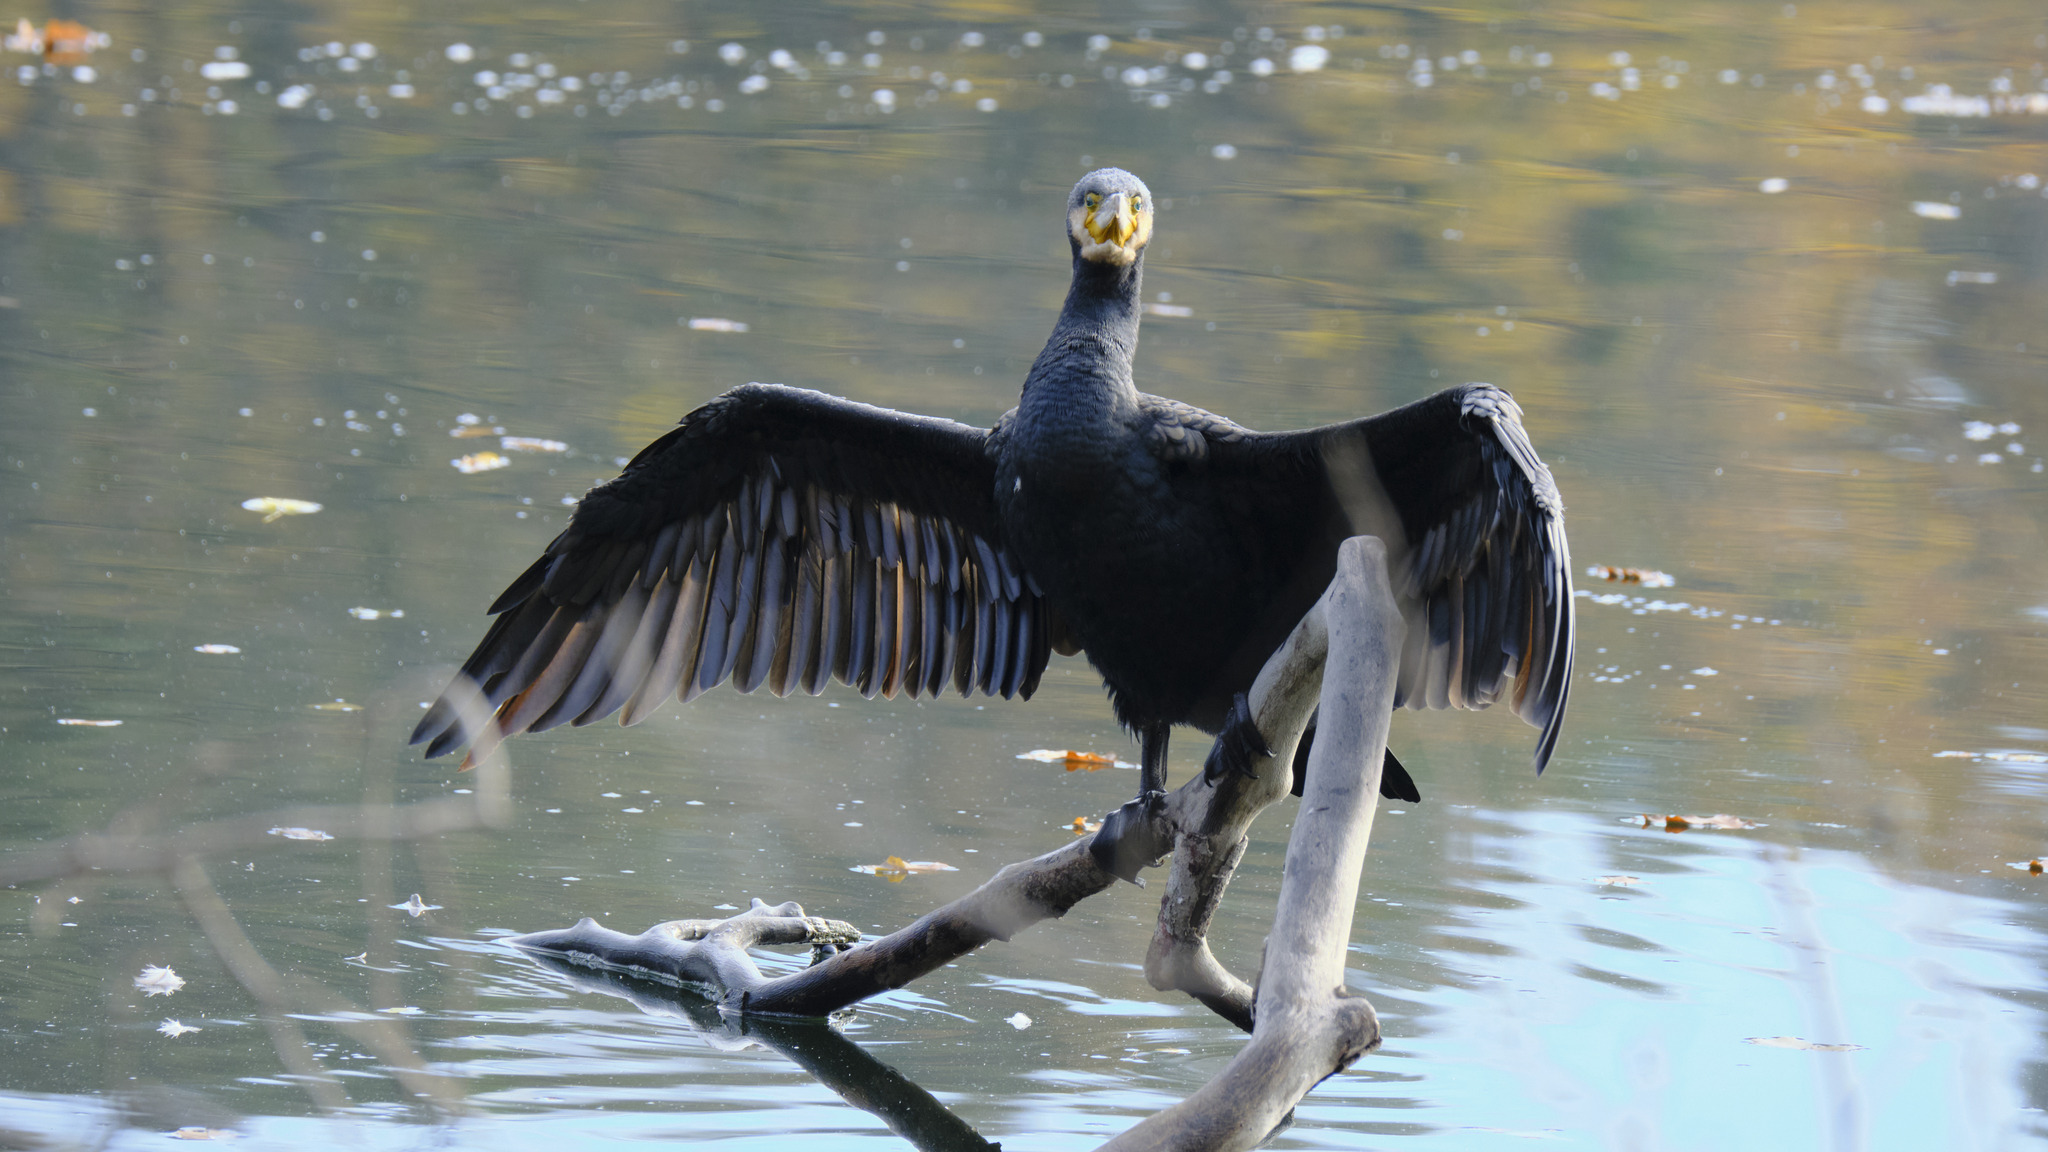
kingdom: Animalia
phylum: Chordata
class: Aves
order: Suliformes
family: Phalacrocoracidae
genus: Phalacrocorax
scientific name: Phalacrocorax carbo
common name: Great cormorant
